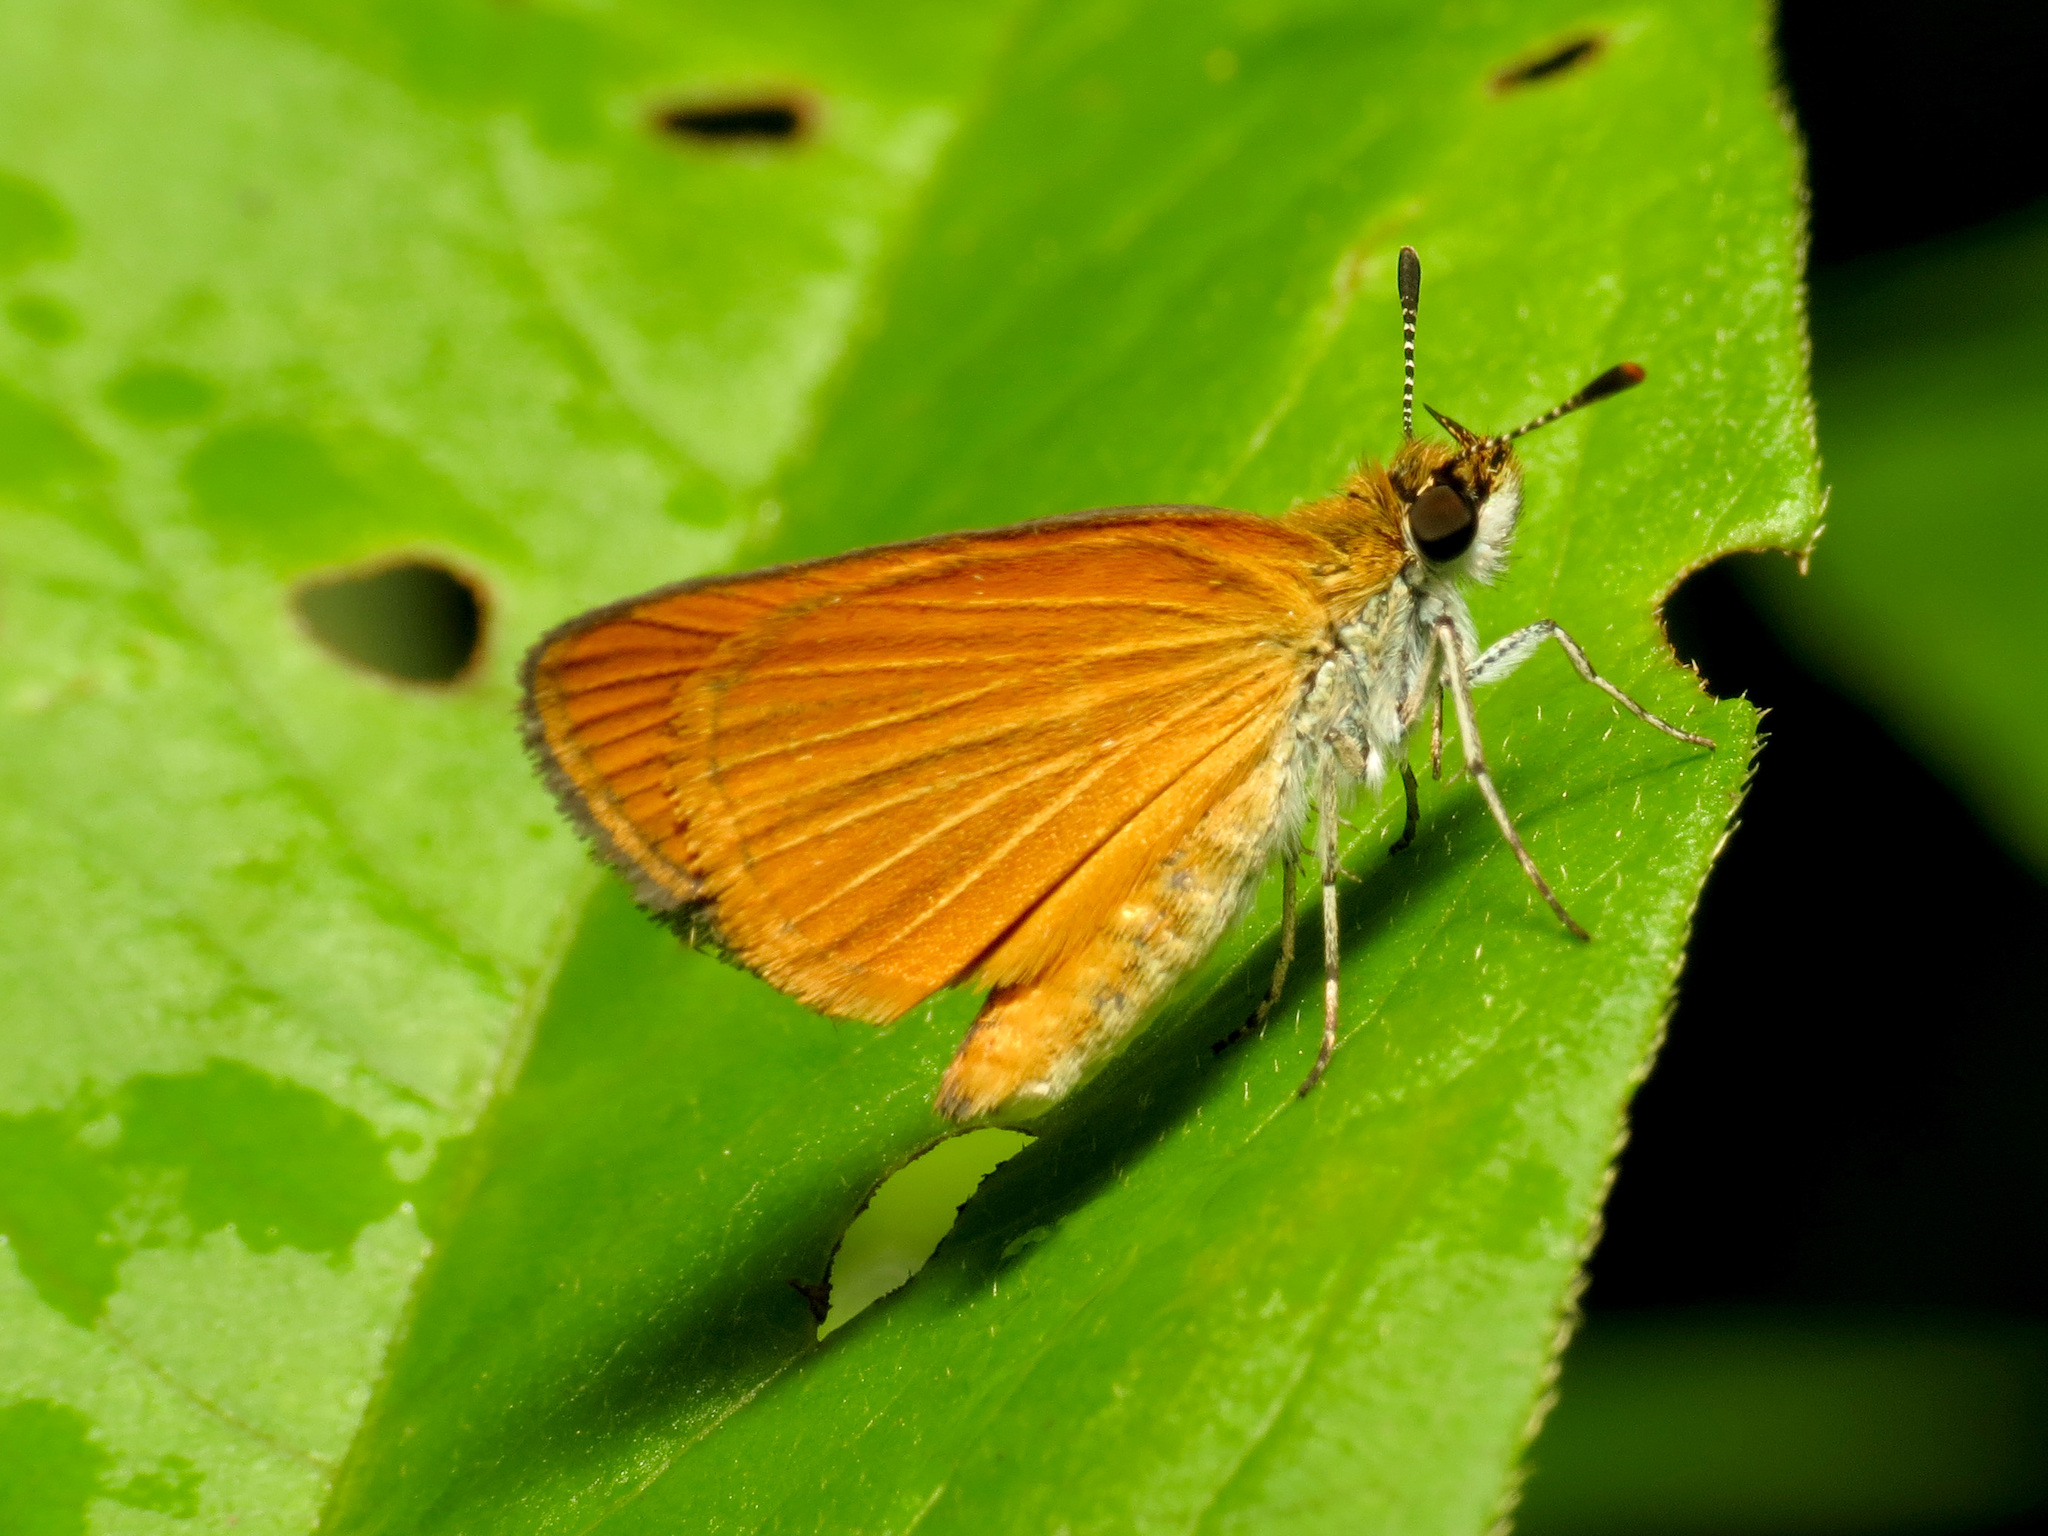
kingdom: Animalia
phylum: Arthropoda
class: Insecta
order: Lepidoptera
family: Hesperiidae
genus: Ancyloxypha
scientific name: Ancyloxypha numitor
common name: Least skipper
